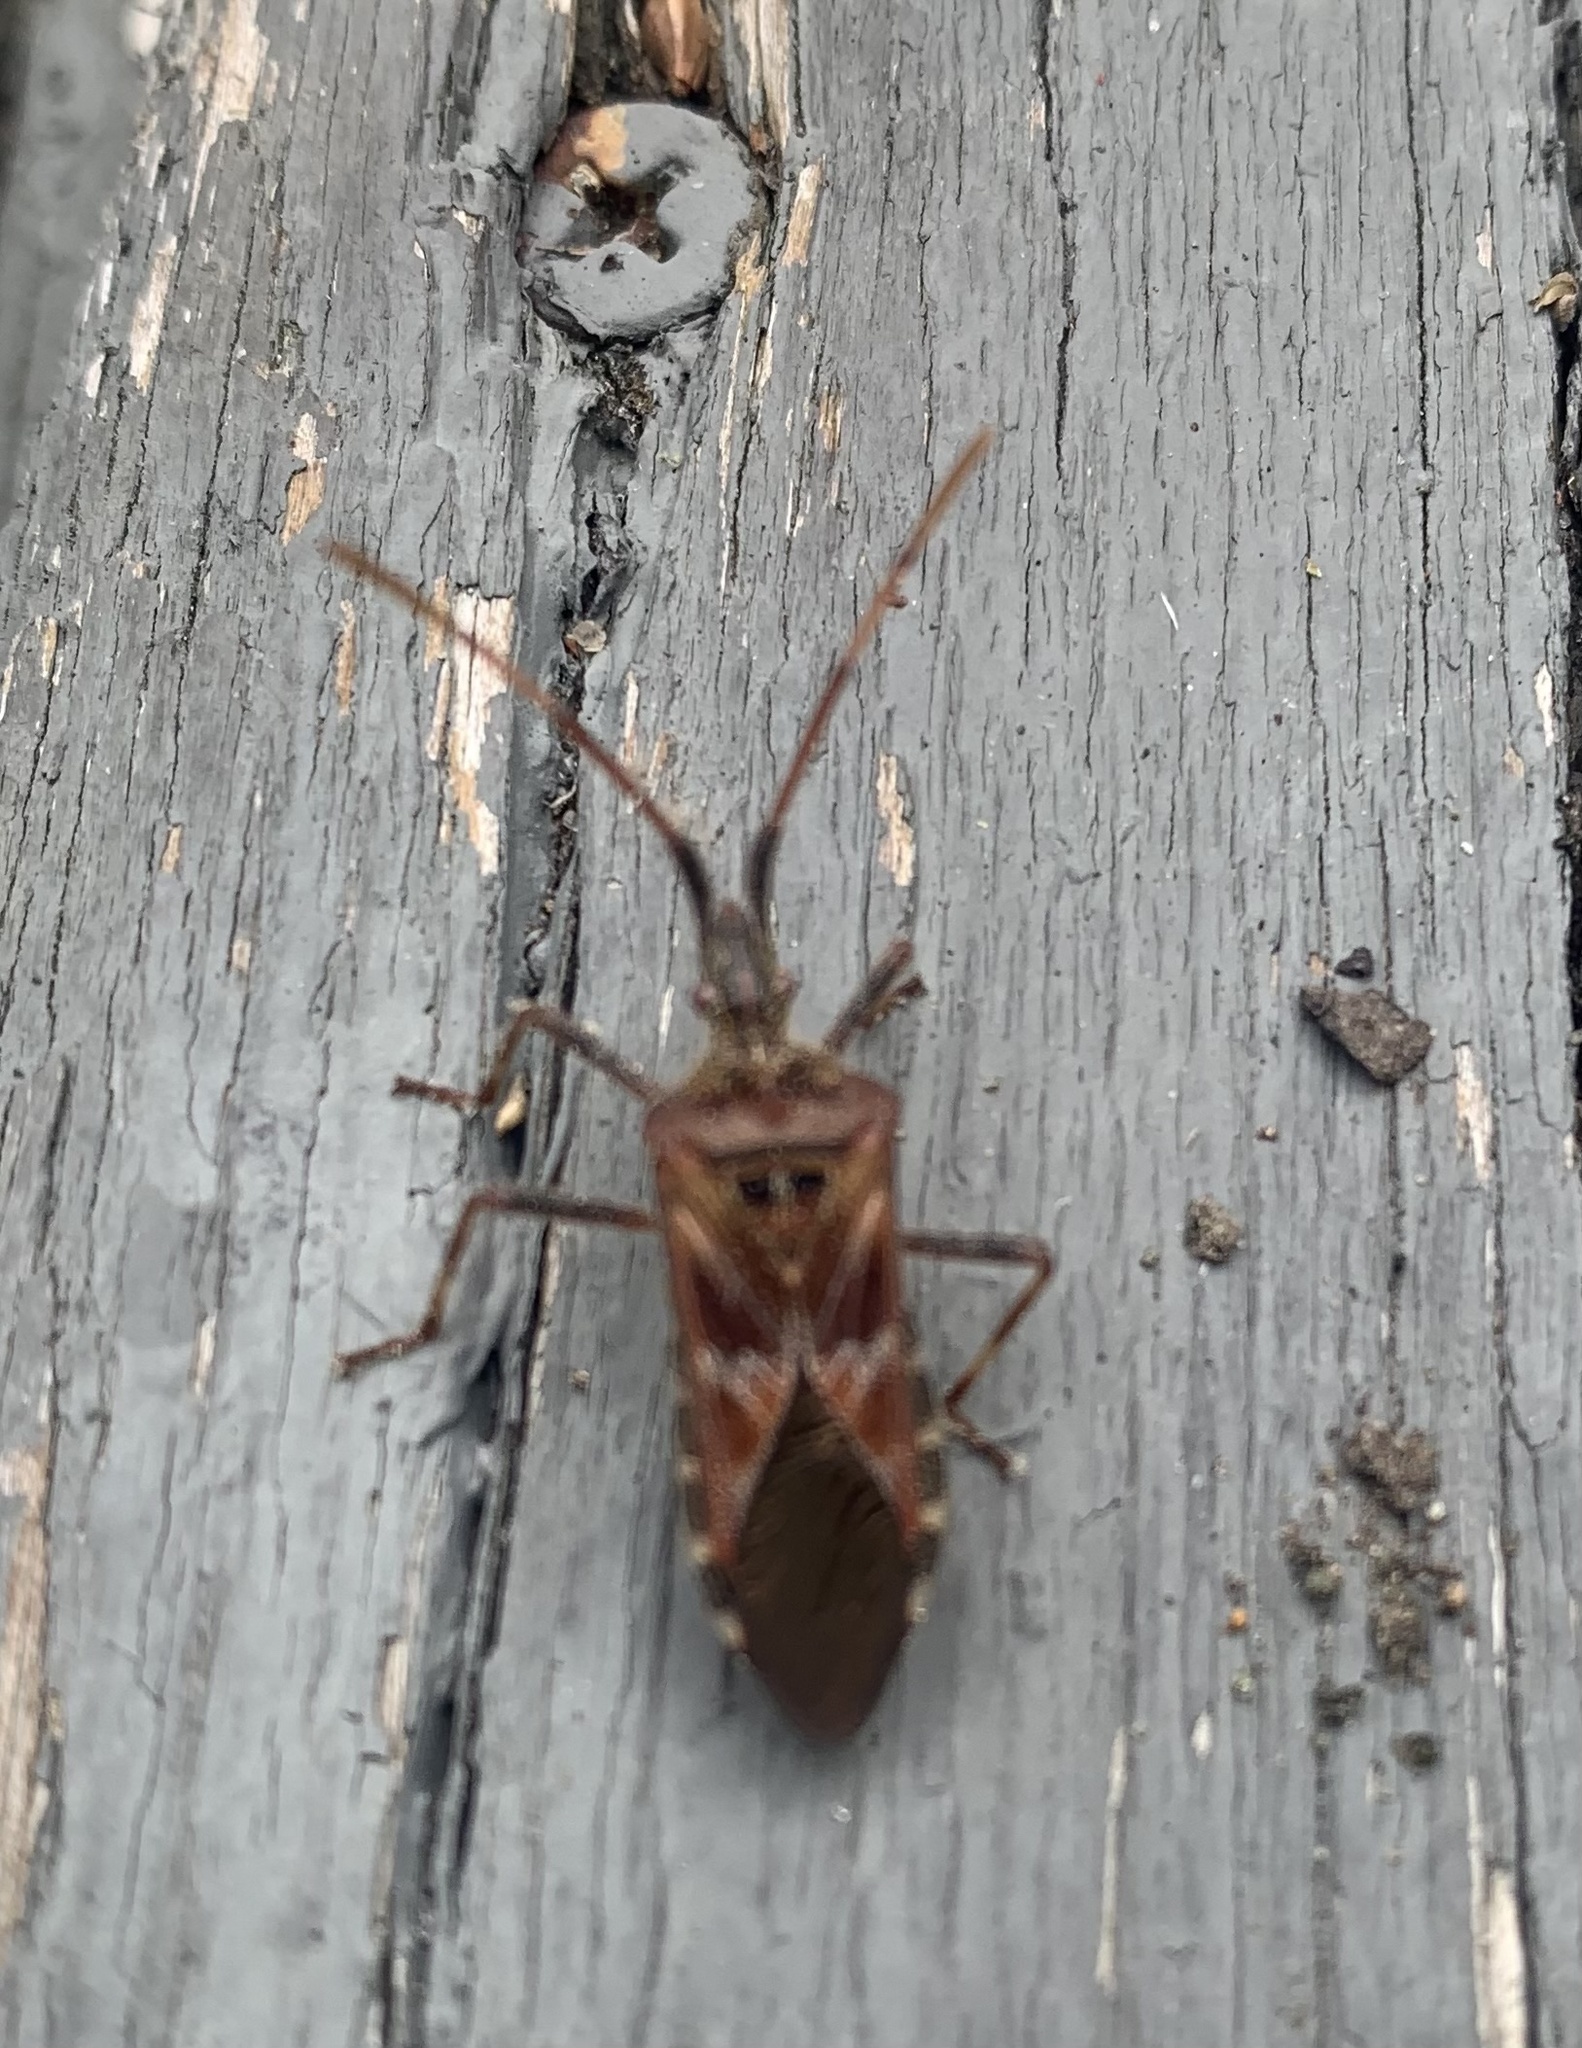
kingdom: Animalia
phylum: Arthropoda
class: Insecta
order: Hemiptera
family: Coreidae
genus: Leptoglossus
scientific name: Leptoglossus occidentalis
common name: Western conifer-seed bug
